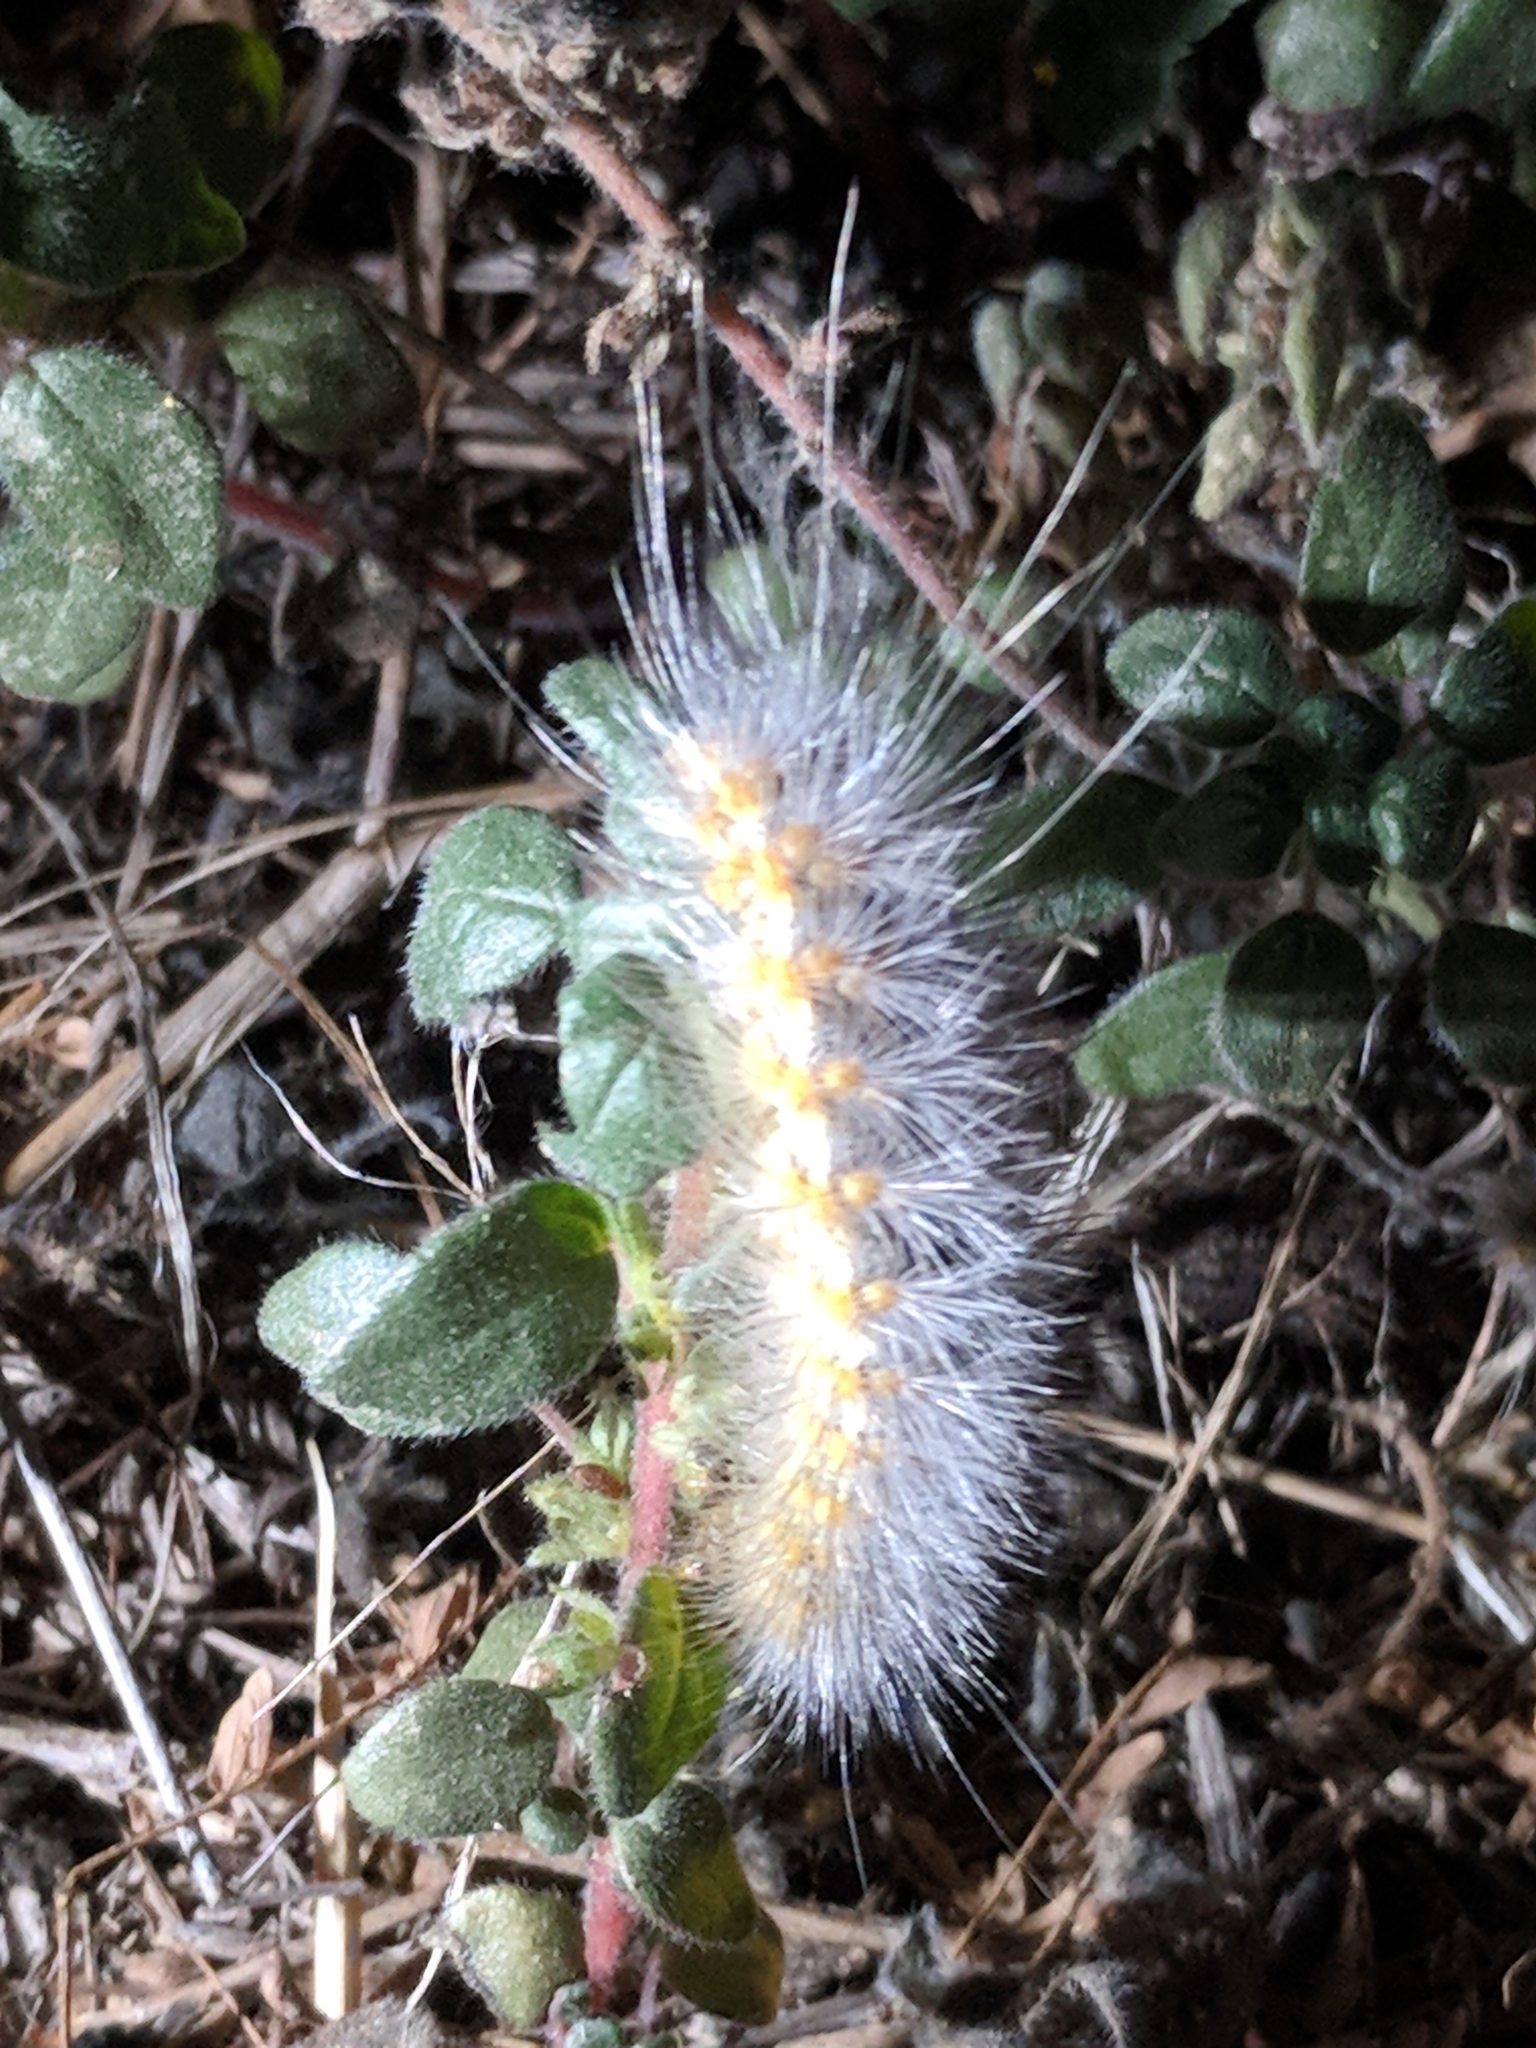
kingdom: Animalia
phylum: Arthropoda
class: Insecta
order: Lepidoptera
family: Erebidae
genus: Estigmene
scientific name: Estigmene acrea
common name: Salt marsh moth
